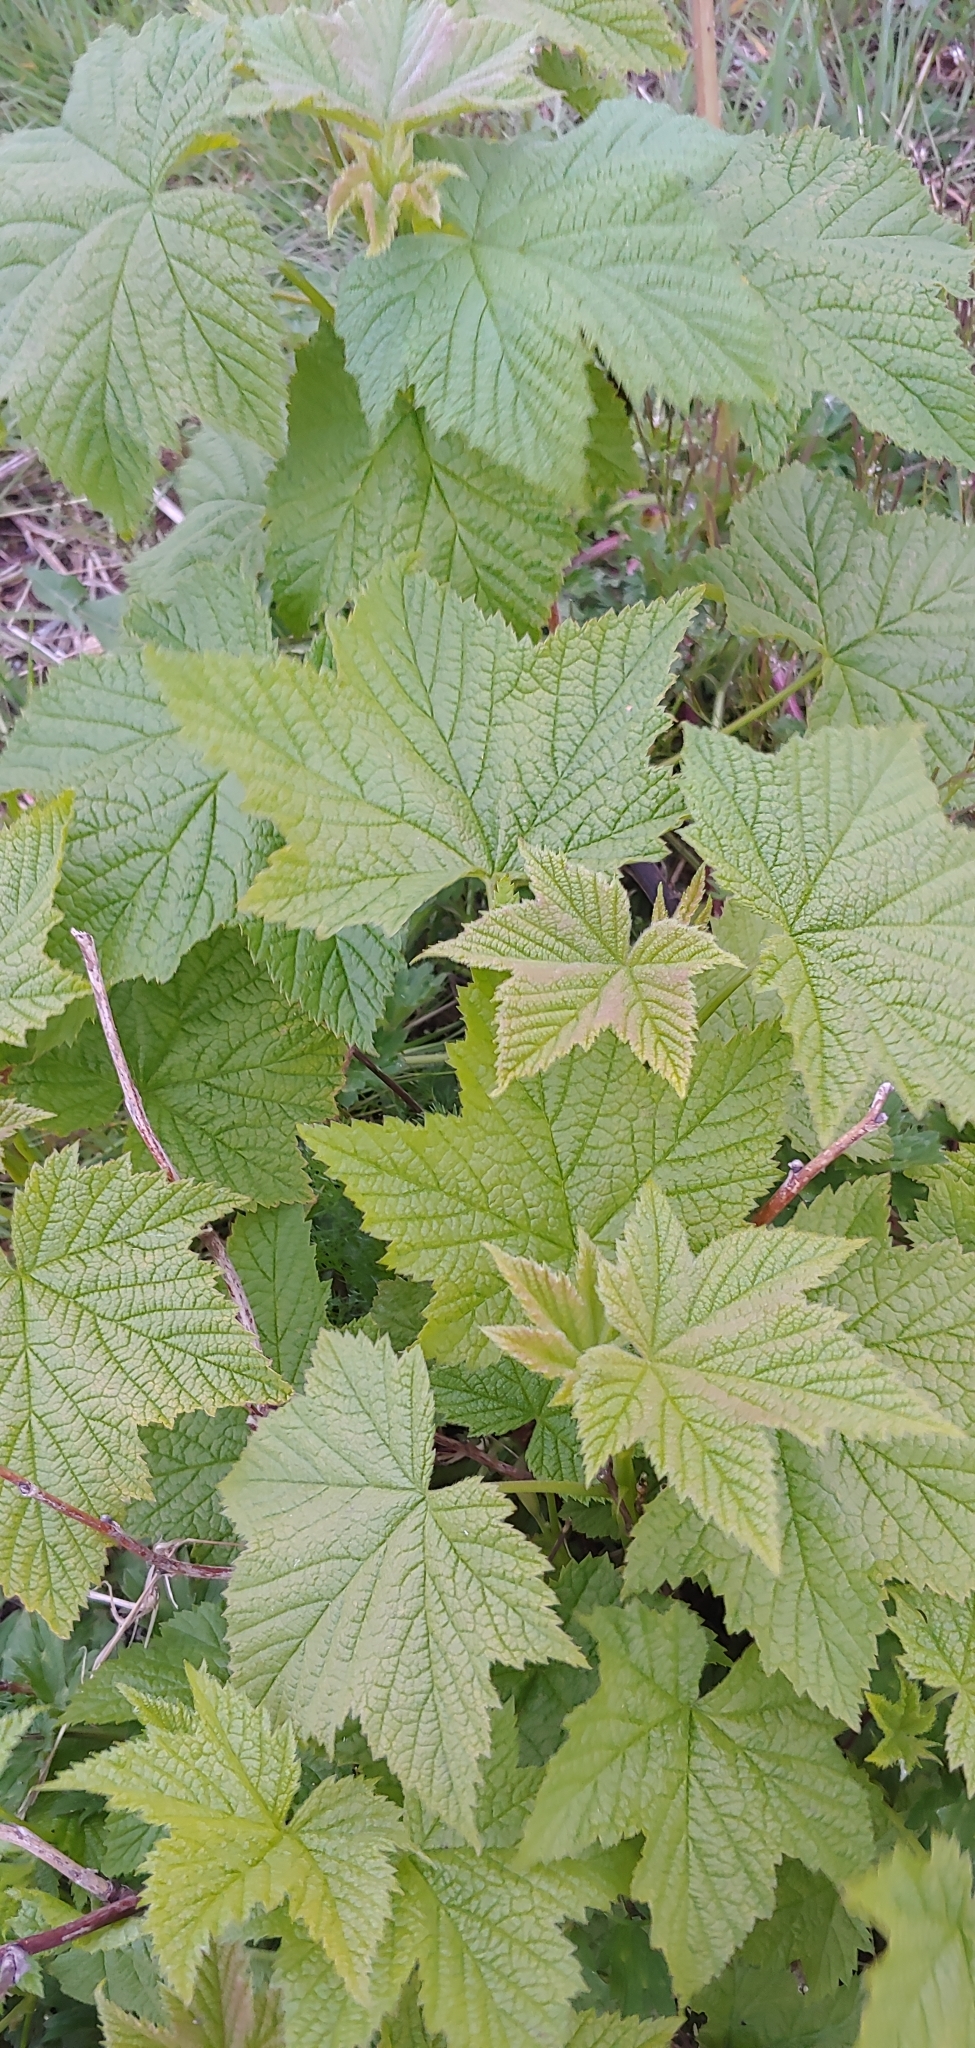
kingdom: Plantae
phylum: Tracheophyta
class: Magnoliopsida
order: Rosales
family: Rosaceae
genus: Rubus
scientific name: Rubus parviflorus
